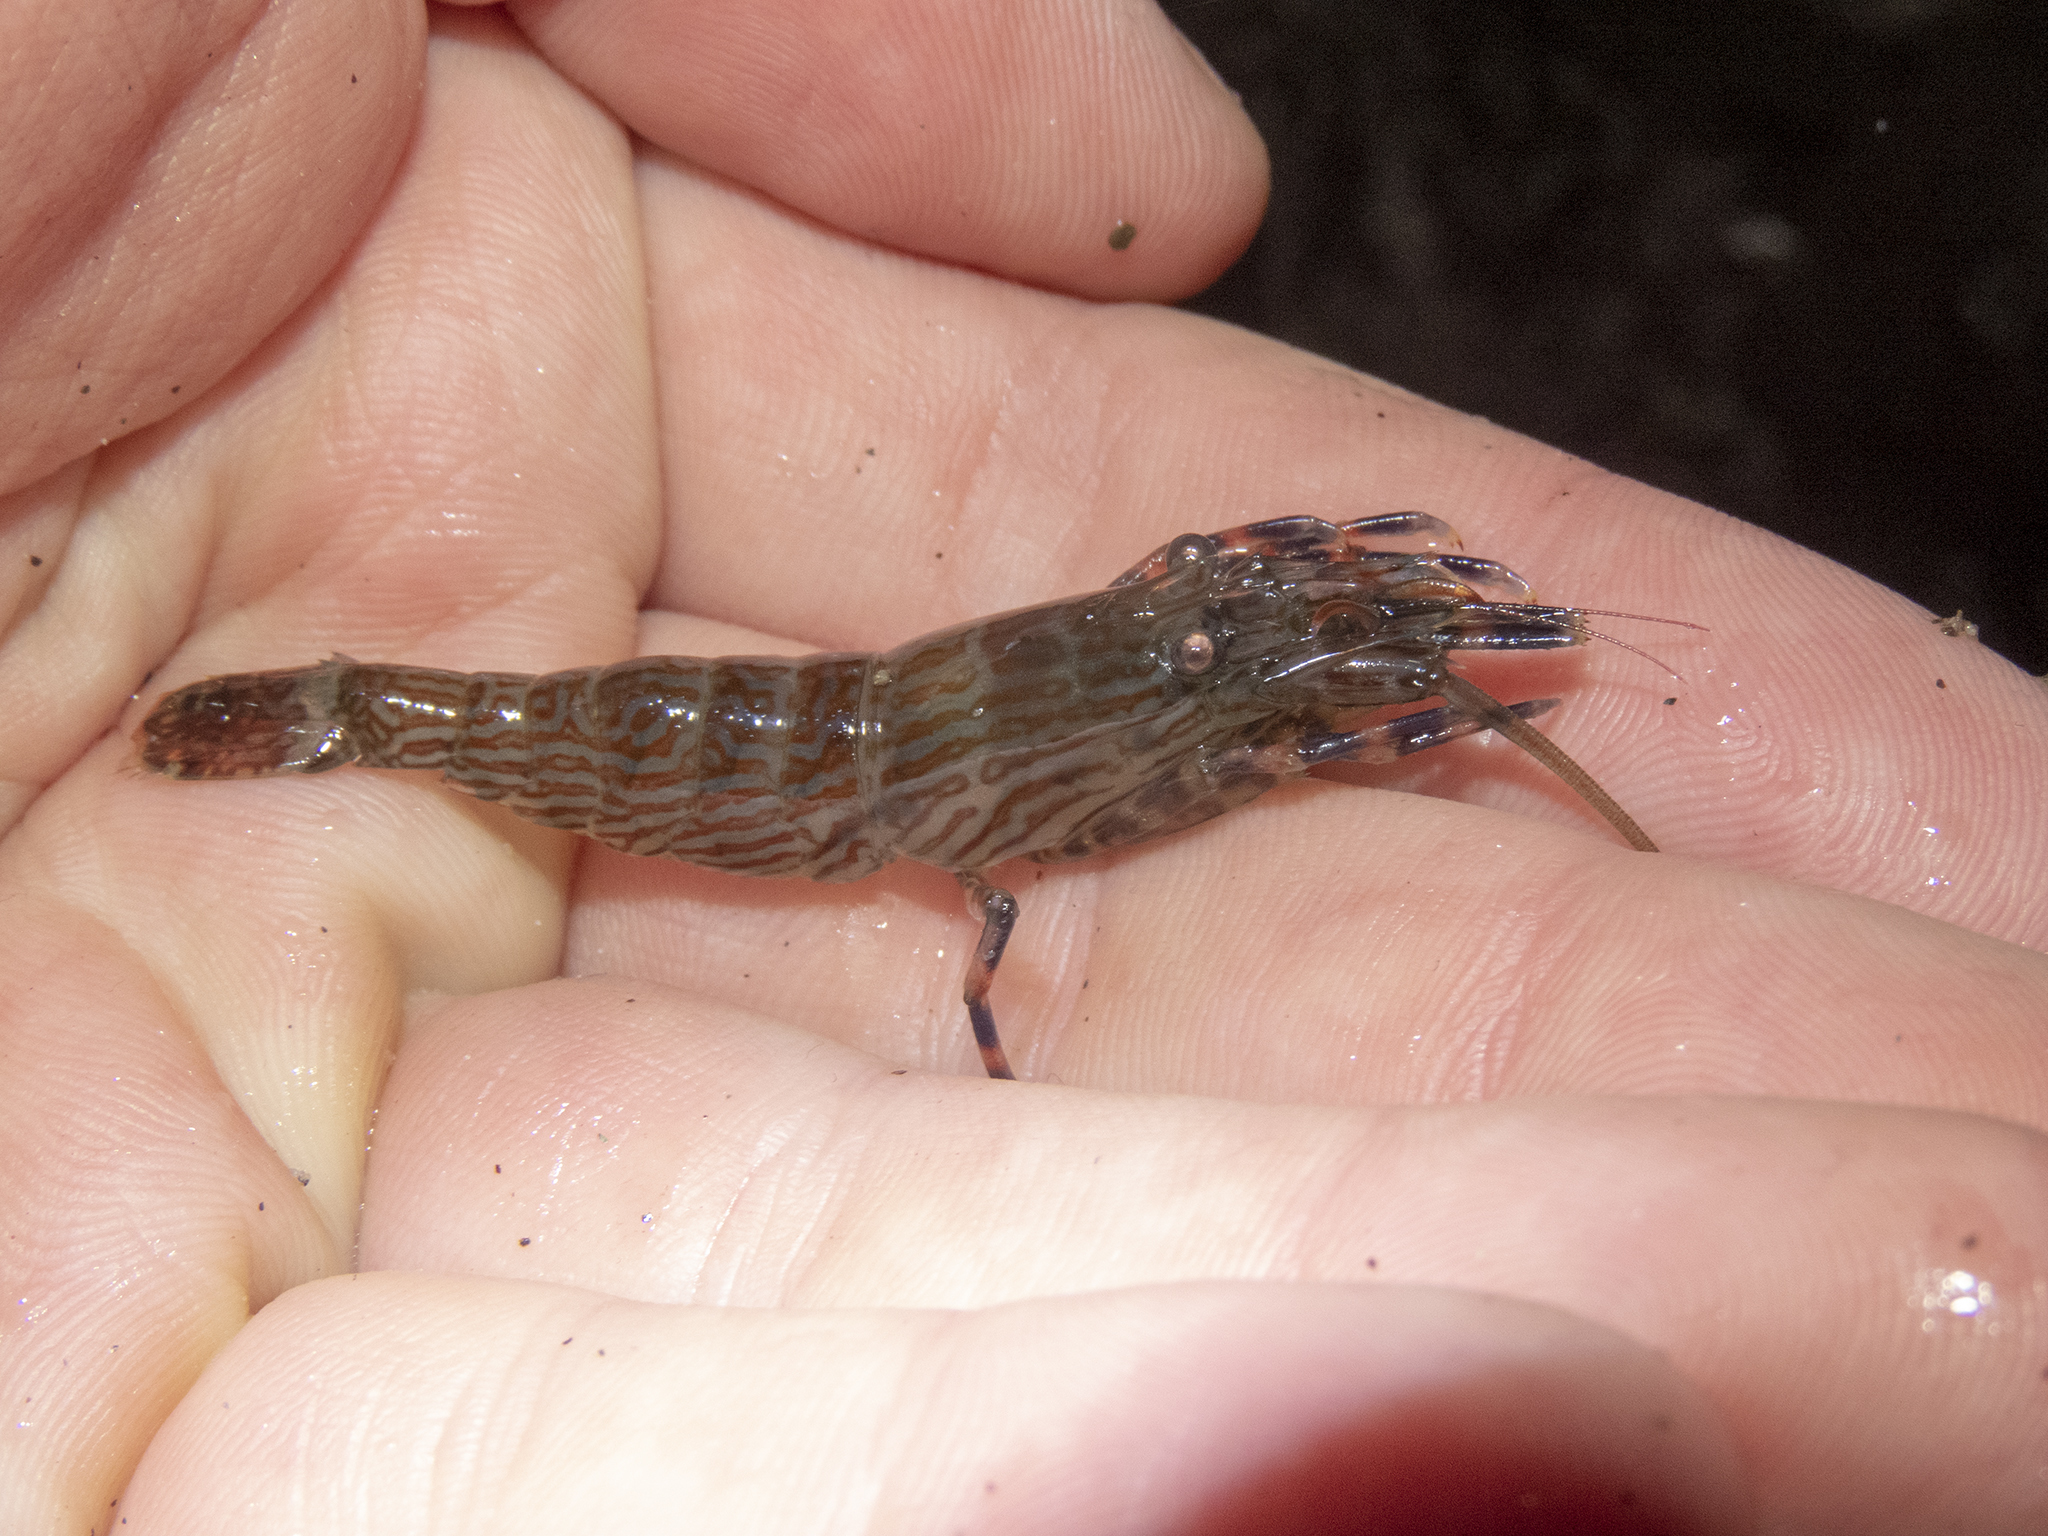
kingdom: Animalia
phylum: Arthropoda
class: Malacostraca
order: Decapoda
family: Hippolytidae
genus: Alope
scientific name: Alope spinifrons
